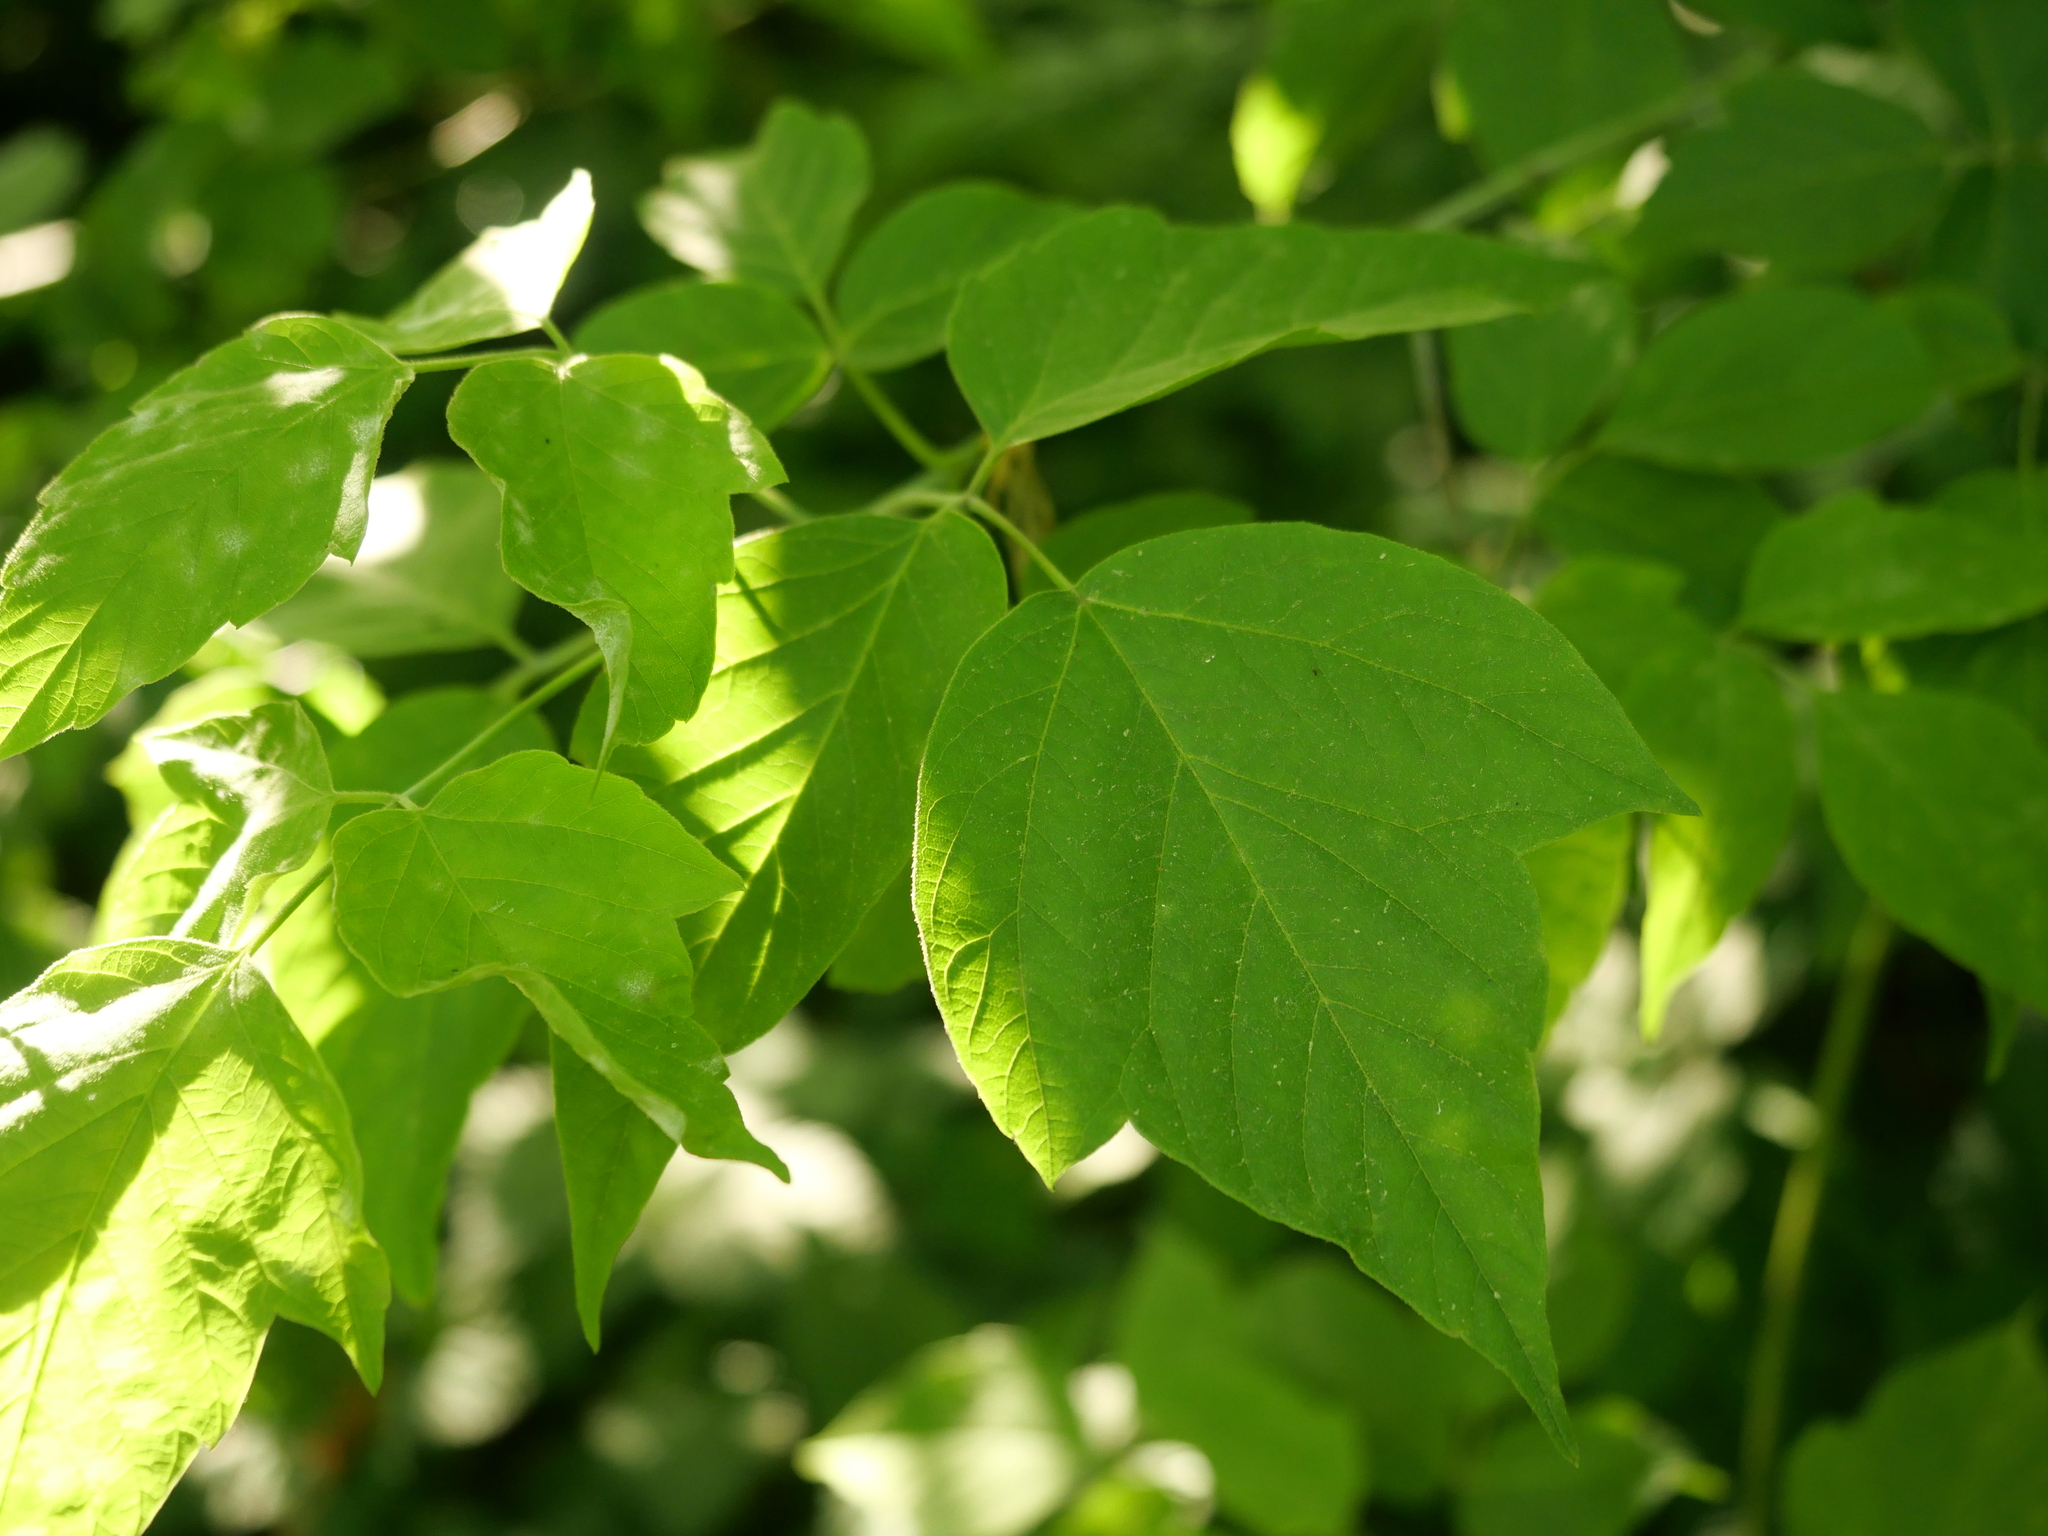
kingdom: Plantae
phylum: Tracheophyta
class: Magnoliopsida
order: Sapindales
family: Sapindaceae
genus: Acer
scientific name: Acer negundo
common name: Ashleaf maple
